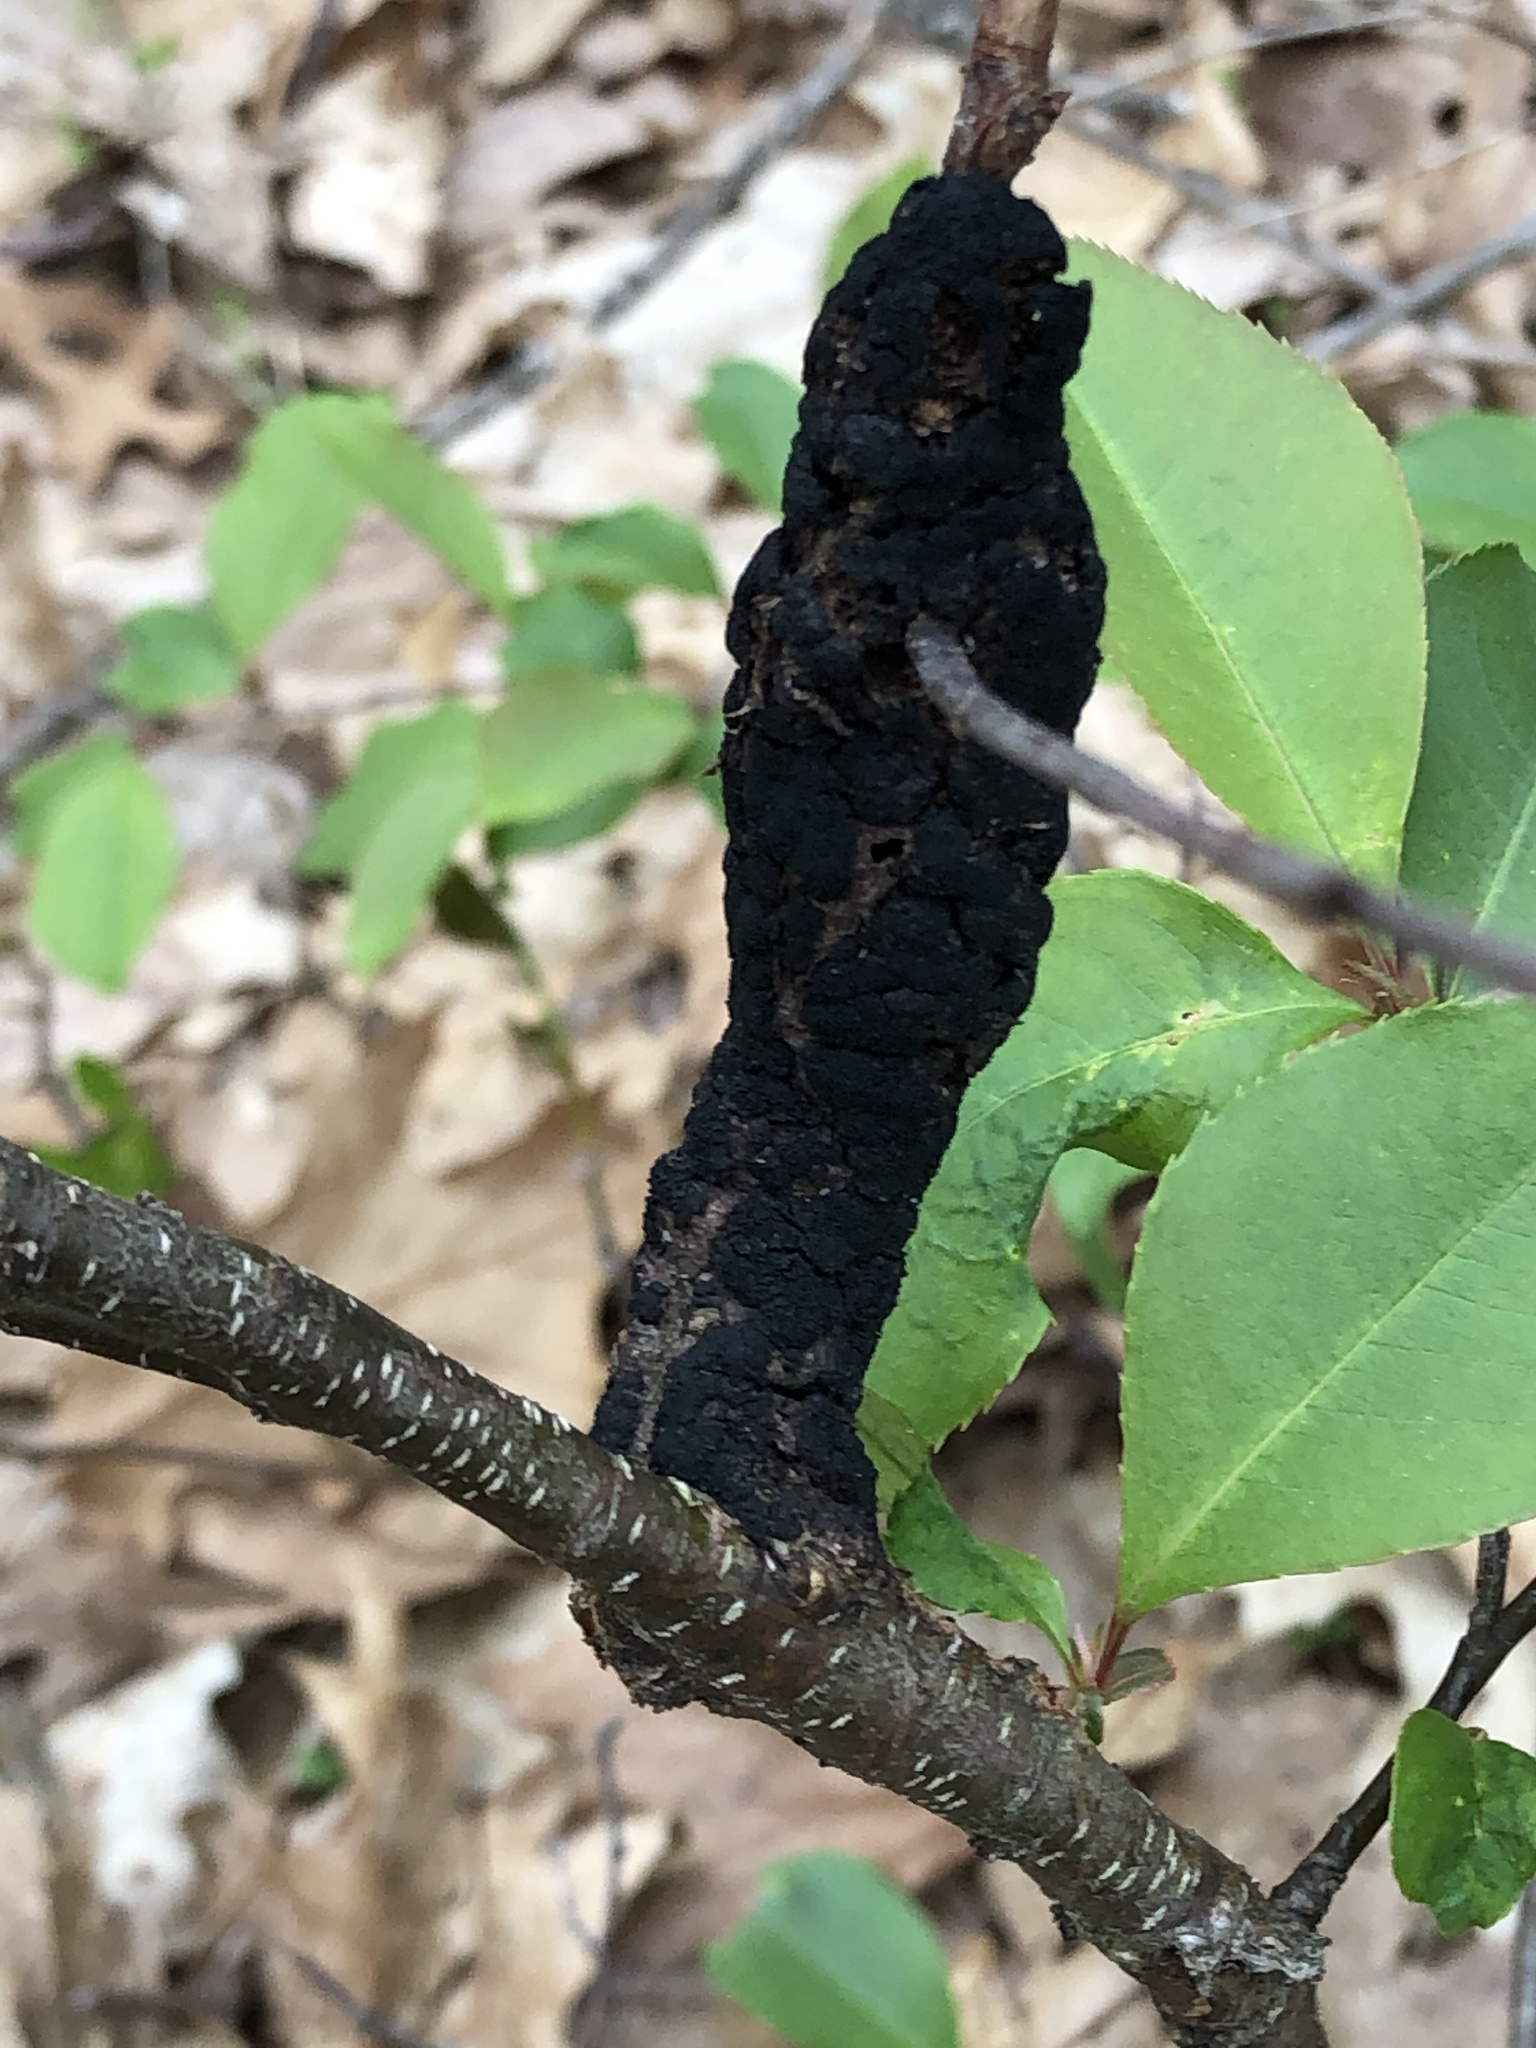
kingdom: Fungi
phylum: Ascomycota
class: Dothideomycetes
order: Venturiales
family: Venturiaceae
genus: Apiosporina
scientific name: Apiosporina morbosa
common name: Black knot
